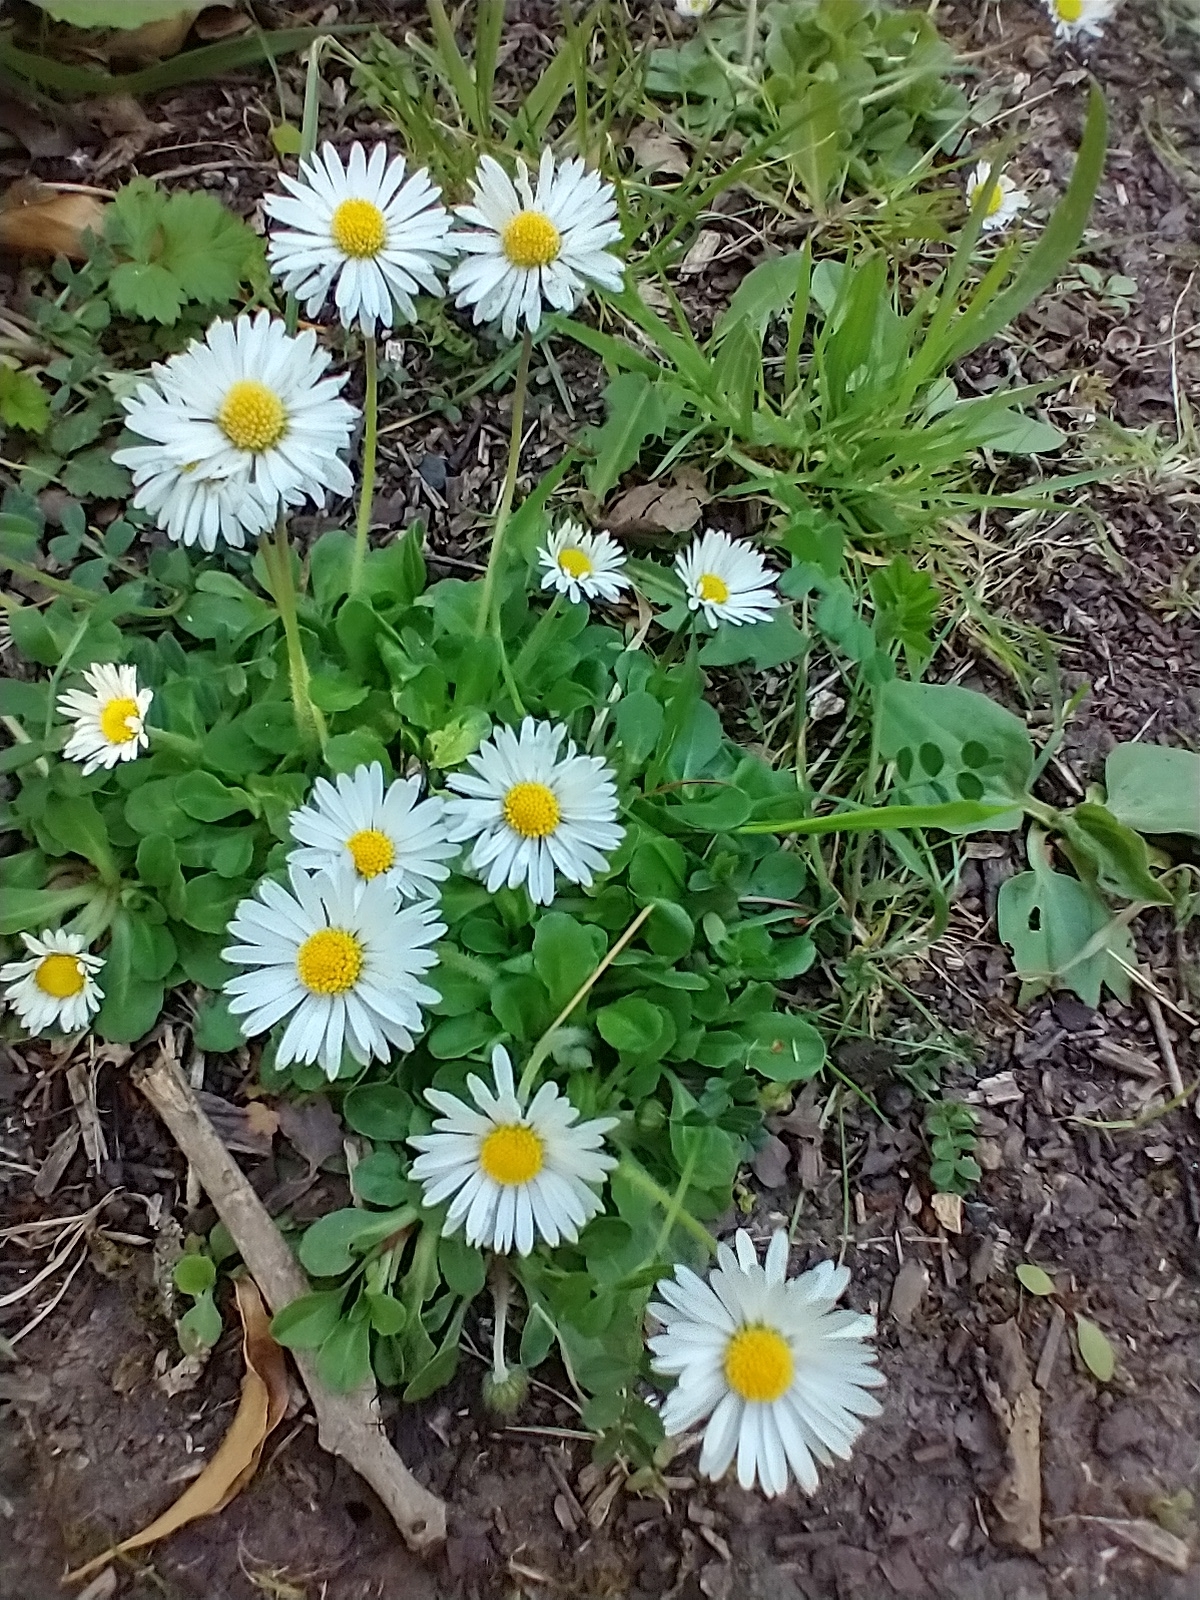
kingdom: Plantae
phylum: Tracheophyta
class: Magnoliopsida
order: Asterales
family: Asteraceae
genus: Bellis
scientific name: Bellis perennis
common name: Lawndaisy
